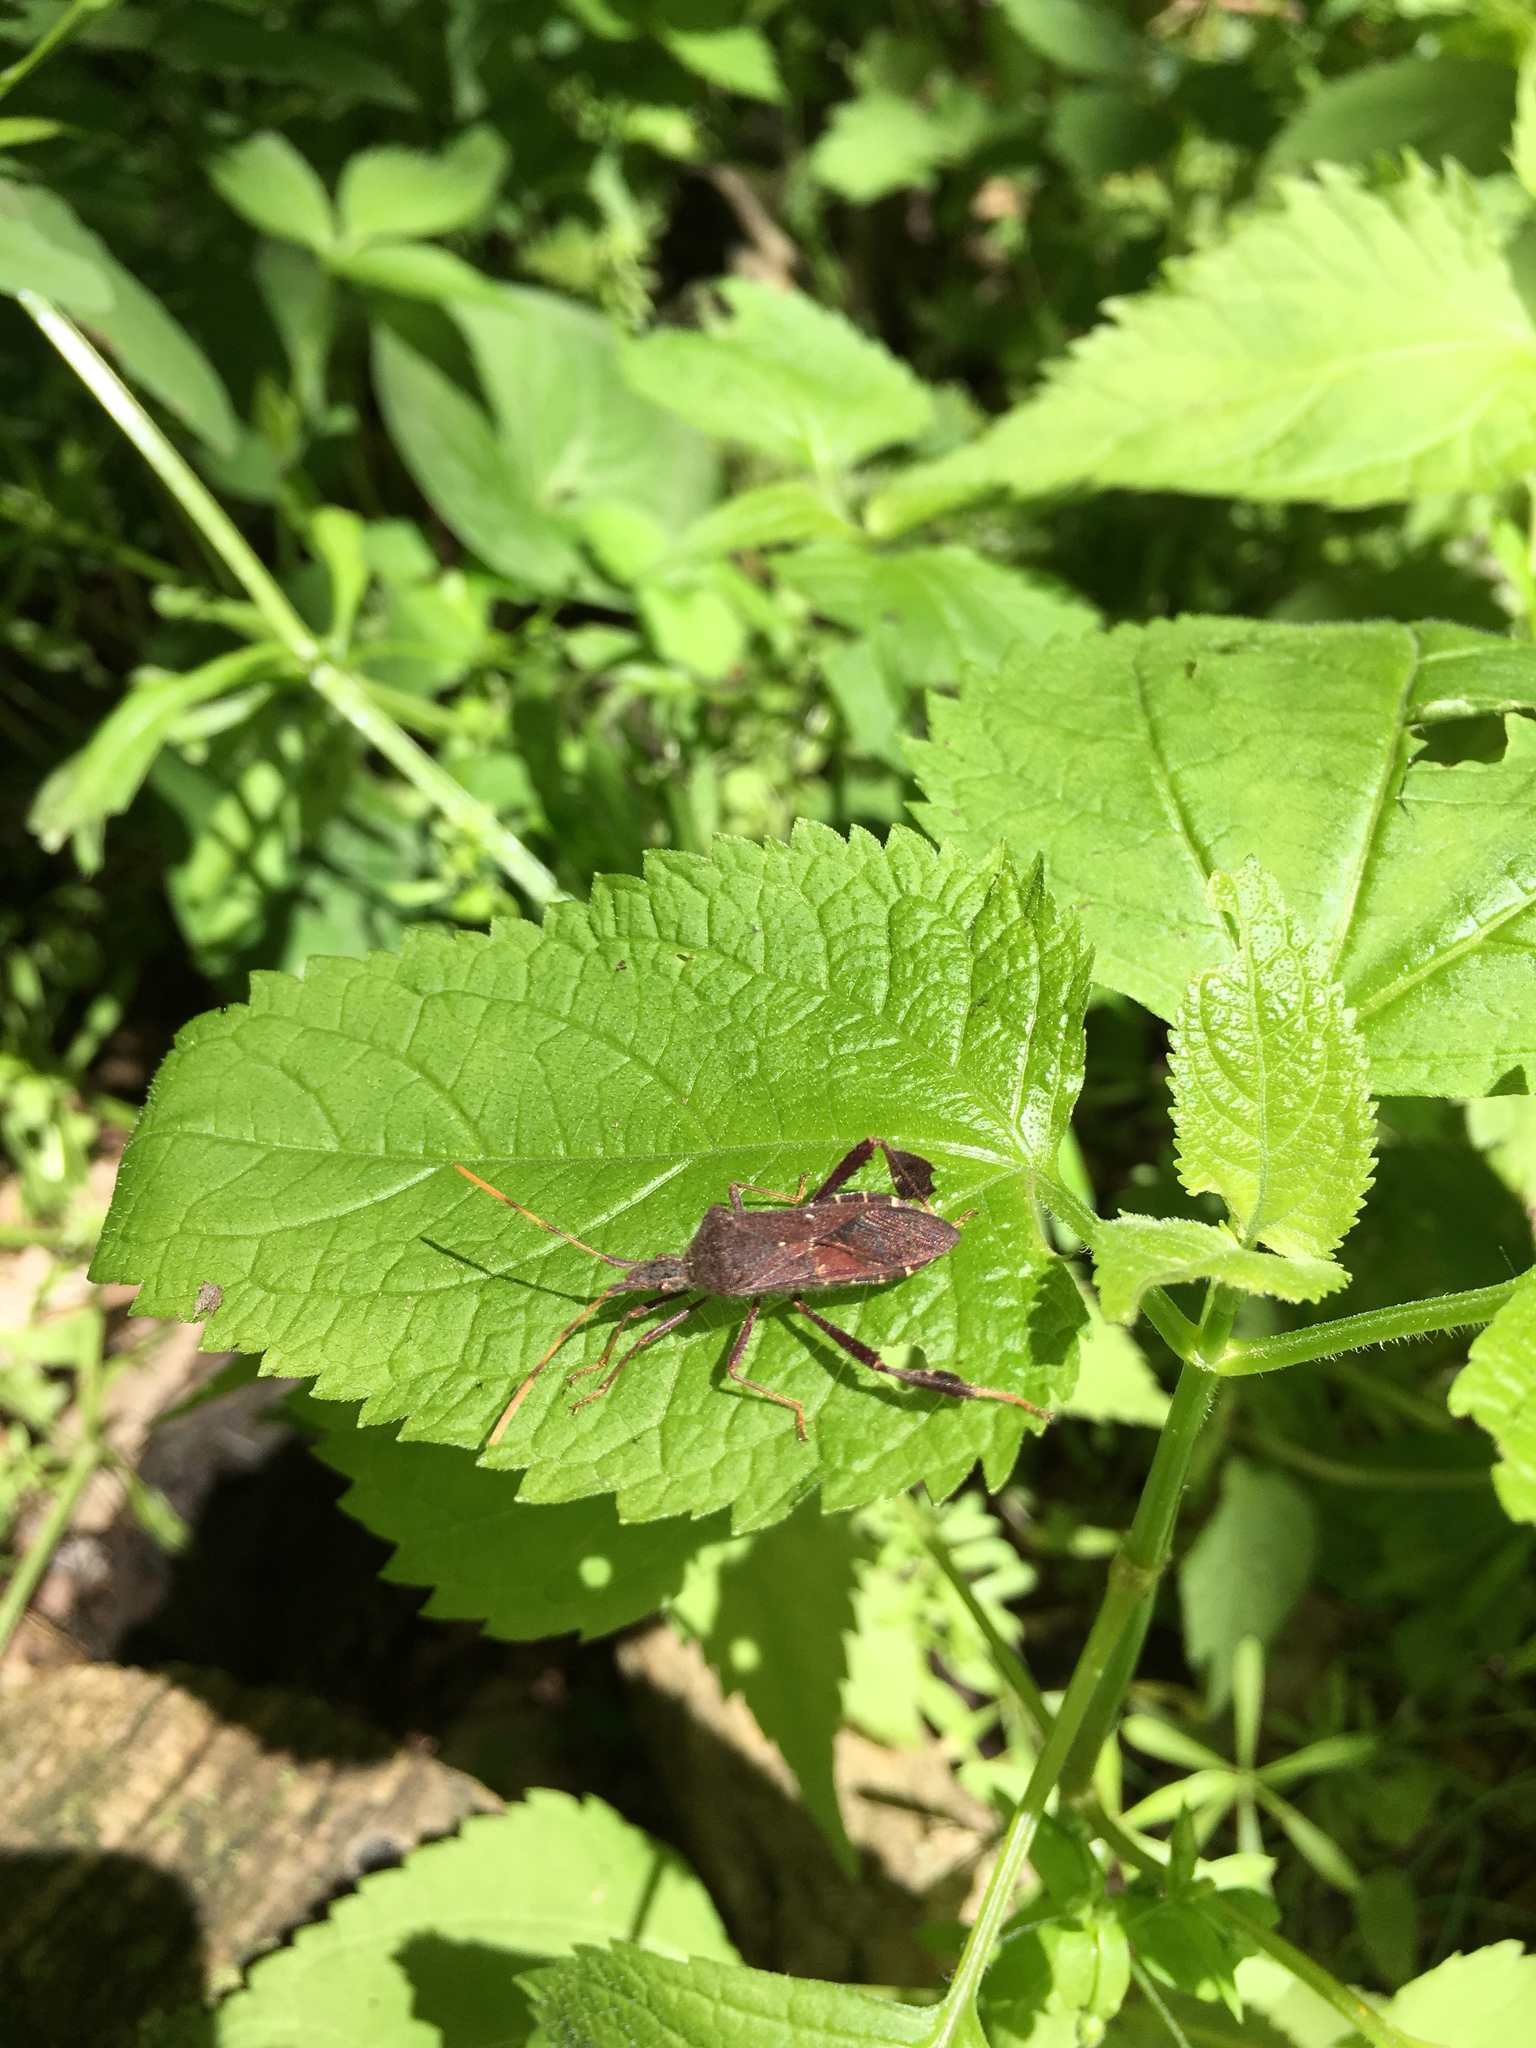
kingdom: Animalia
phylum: Arthropoda
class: Insecta
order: Hemiptera
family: Coreidae
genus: Leptoglossus
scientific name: Leptoglossus oppositus
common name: Northern leaf-footed bug
